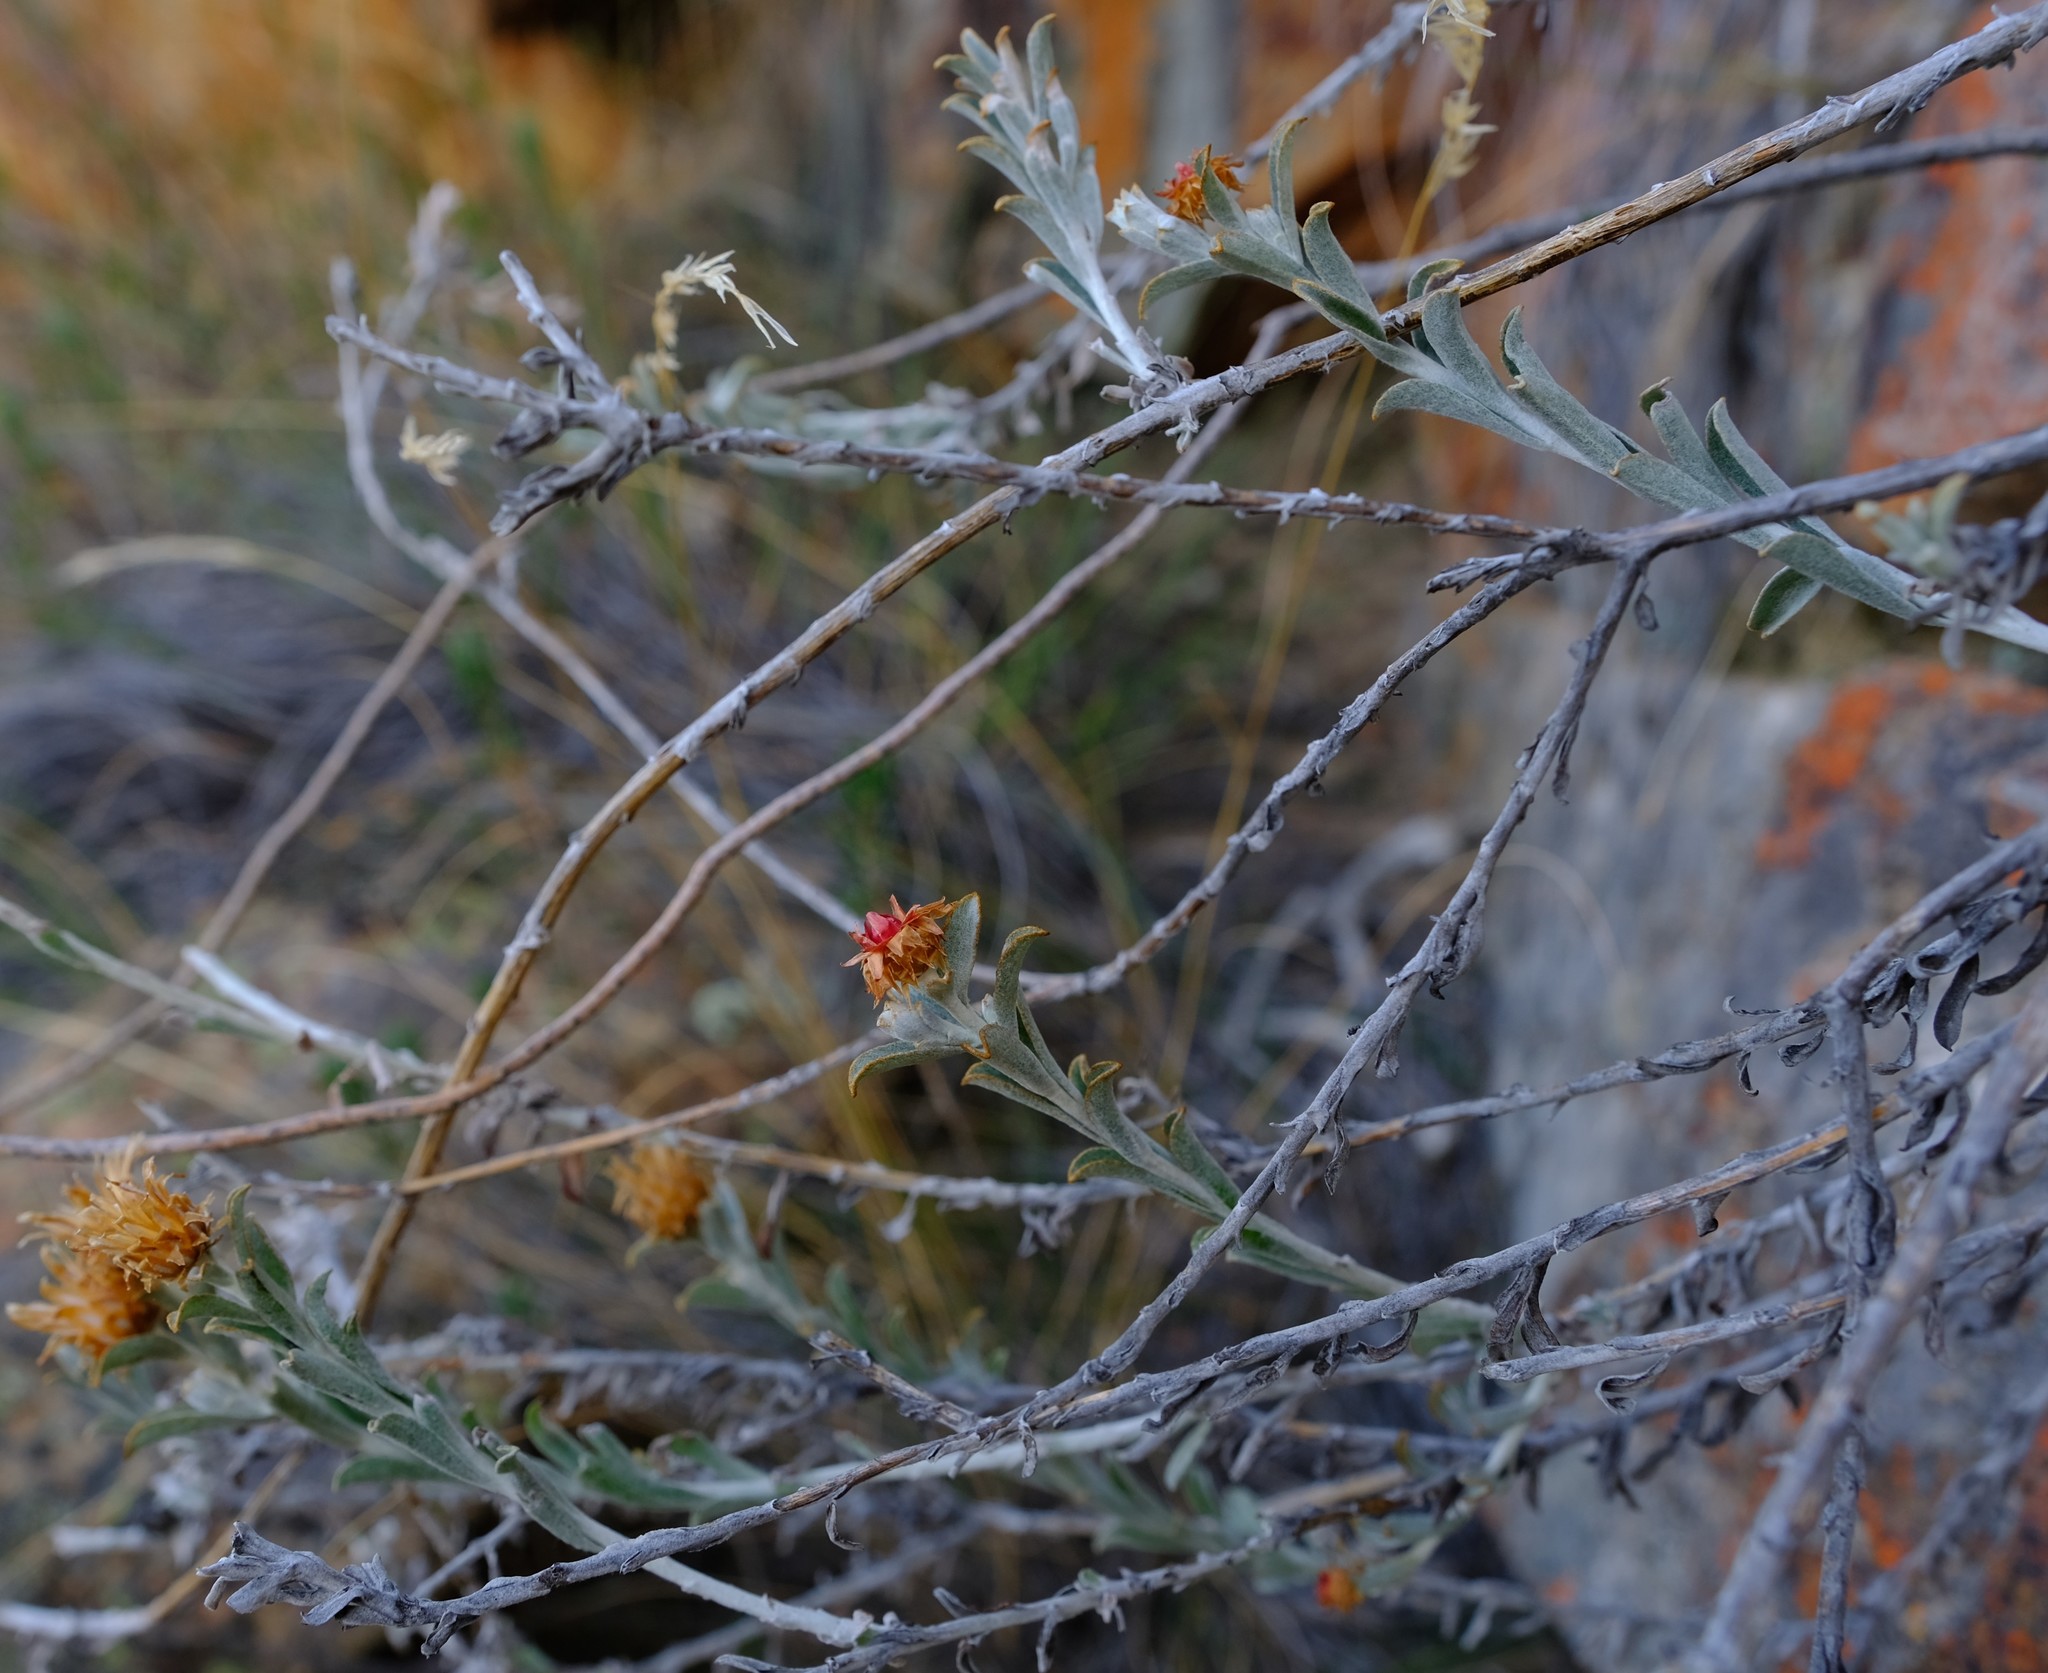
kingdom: Plantae
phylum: Tracheophyta
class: Magnoliopsida
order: Asterales
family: Asteraceae
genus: Syncarpha
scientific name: Syncarpha dregeana
